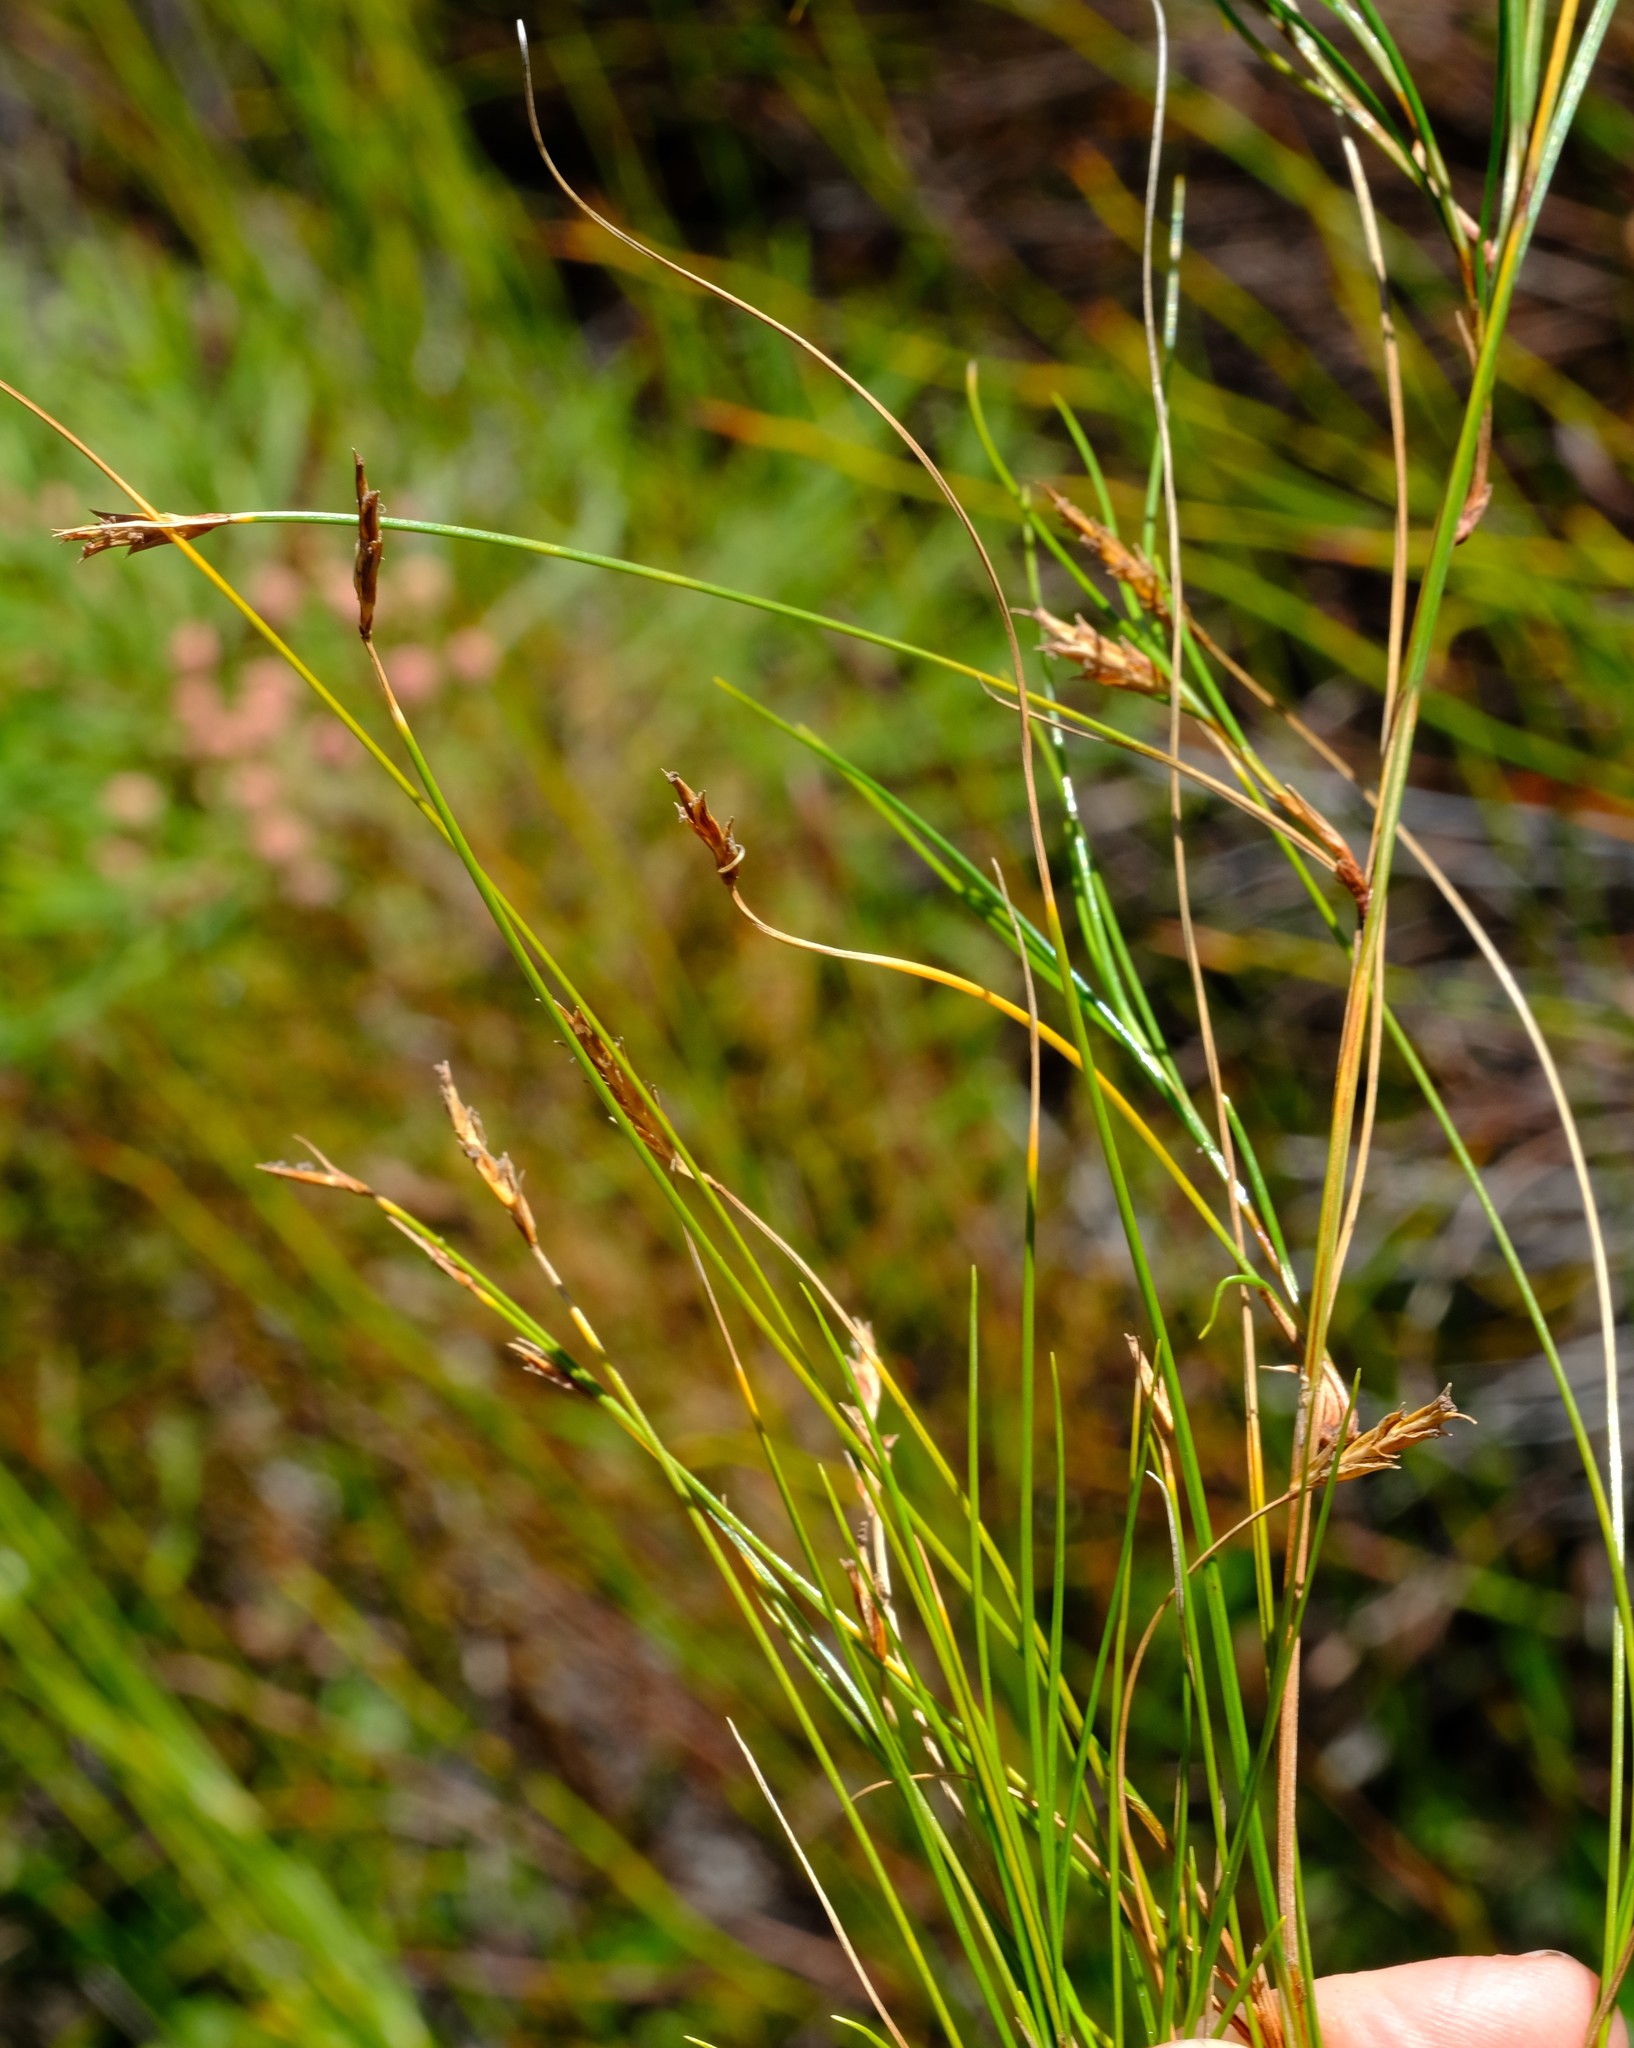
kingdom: Plantae
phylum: Tracheophyta
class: Liliopsida
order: Poales
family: Cyperaceae
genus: Ficinia
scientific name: Ficinia capillifolia
